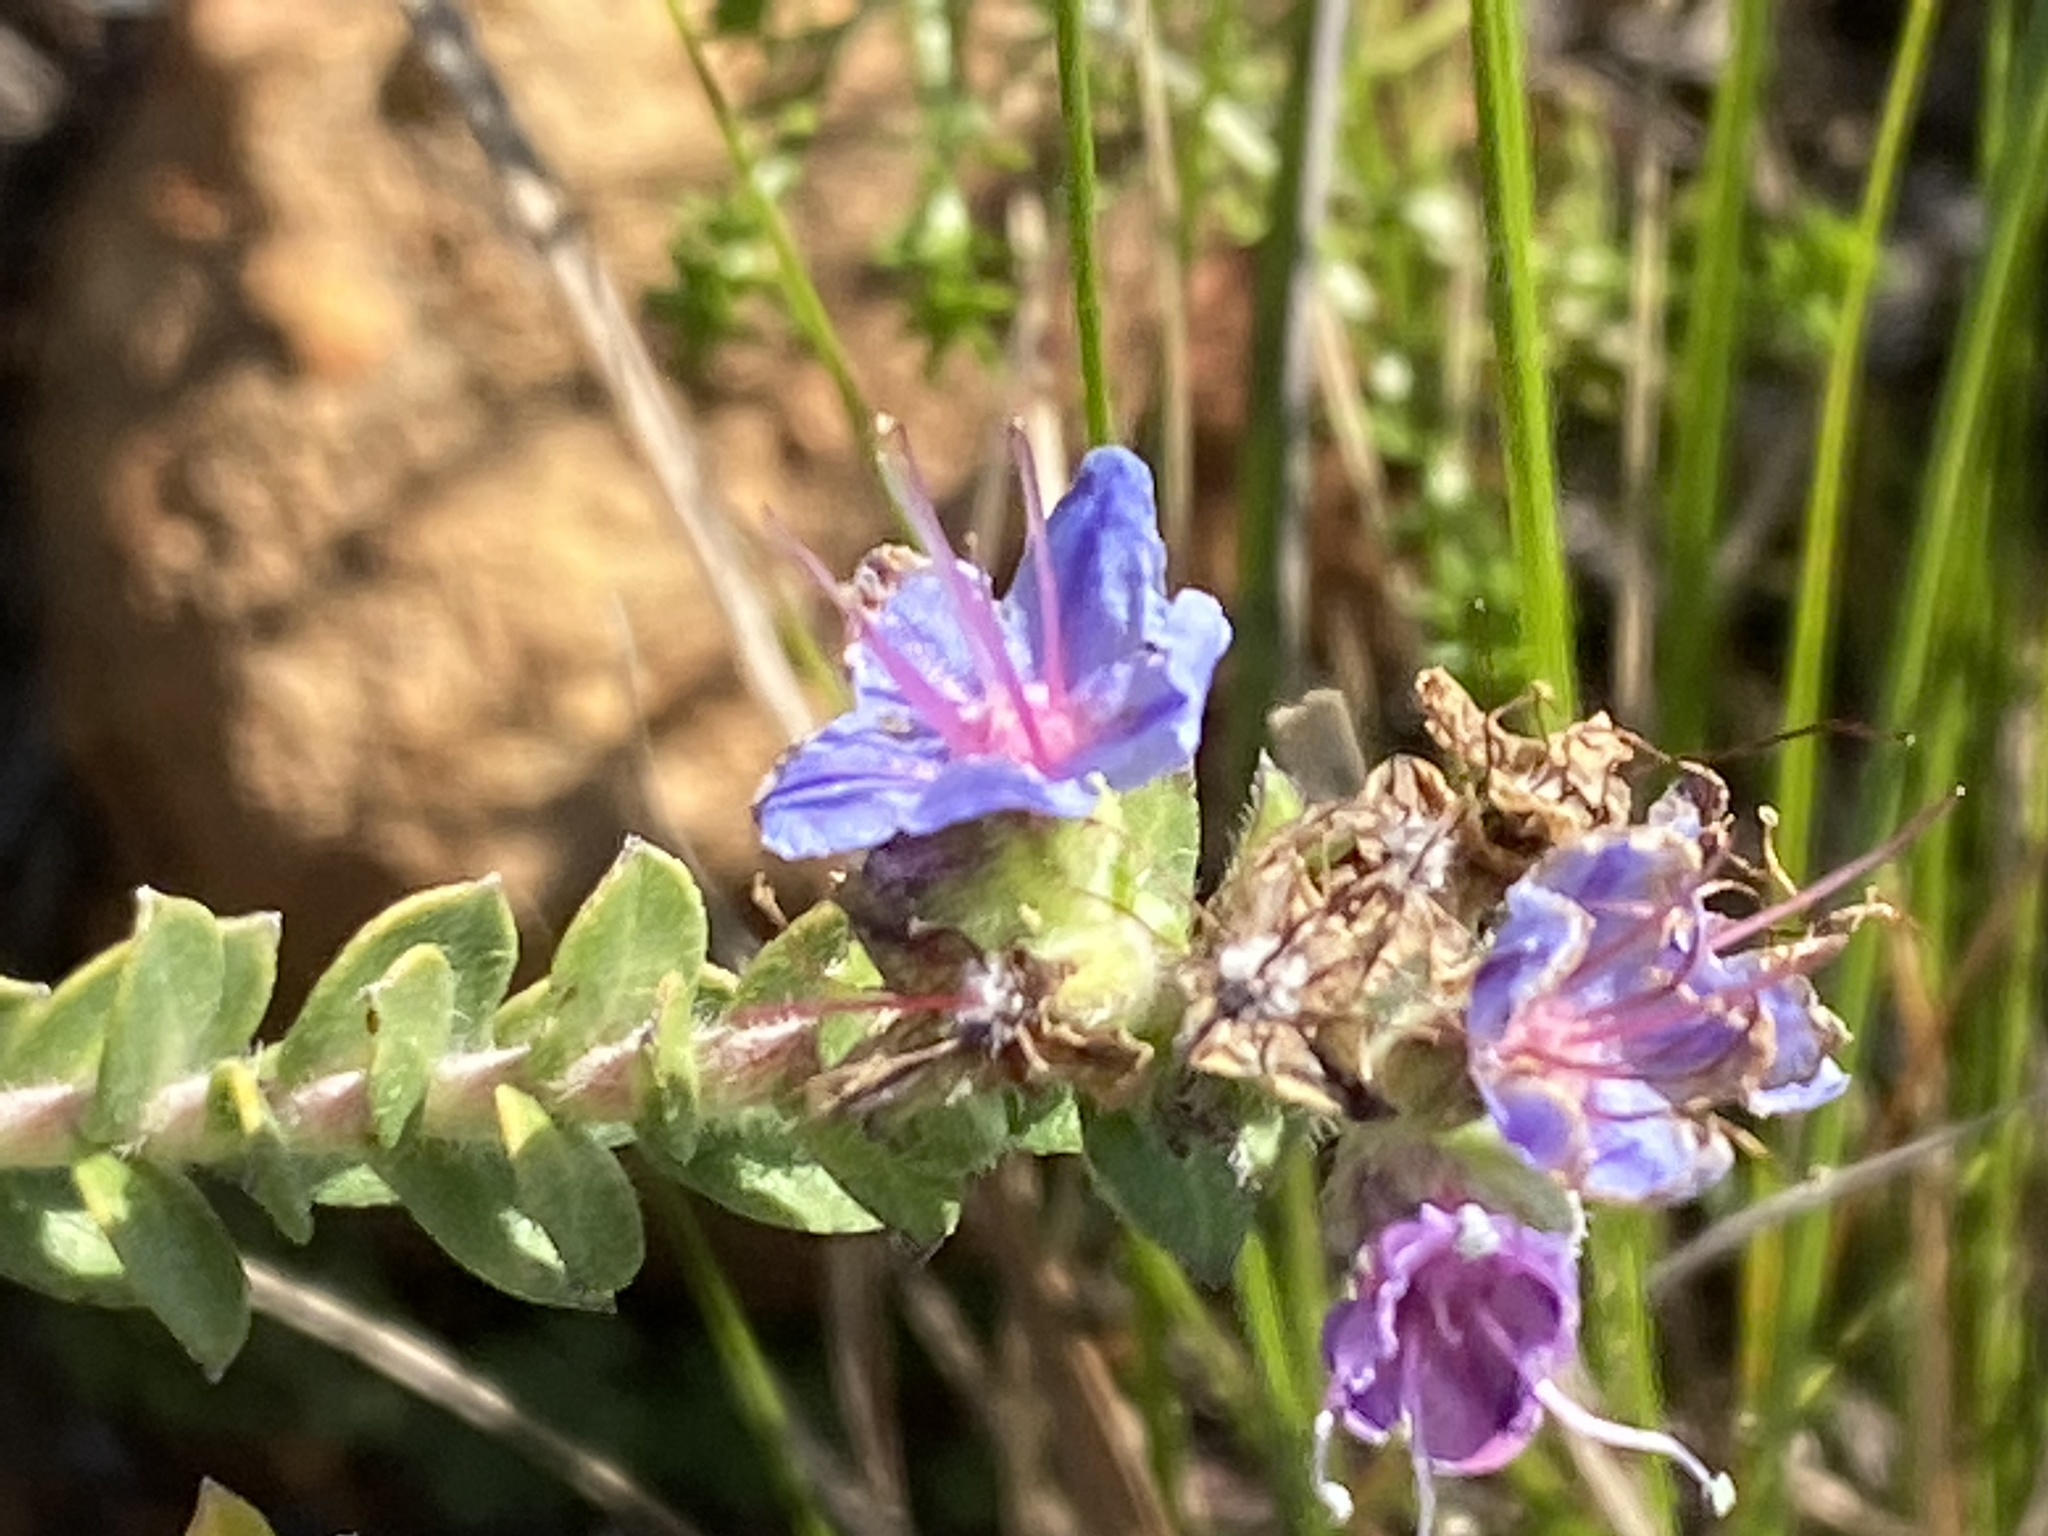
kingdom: Plantae
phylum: Tracheophyta
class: Magnoliopsida
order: Boraginales
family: Boraginaceae
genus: Lobostemon
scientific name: Lobostemon echioides
